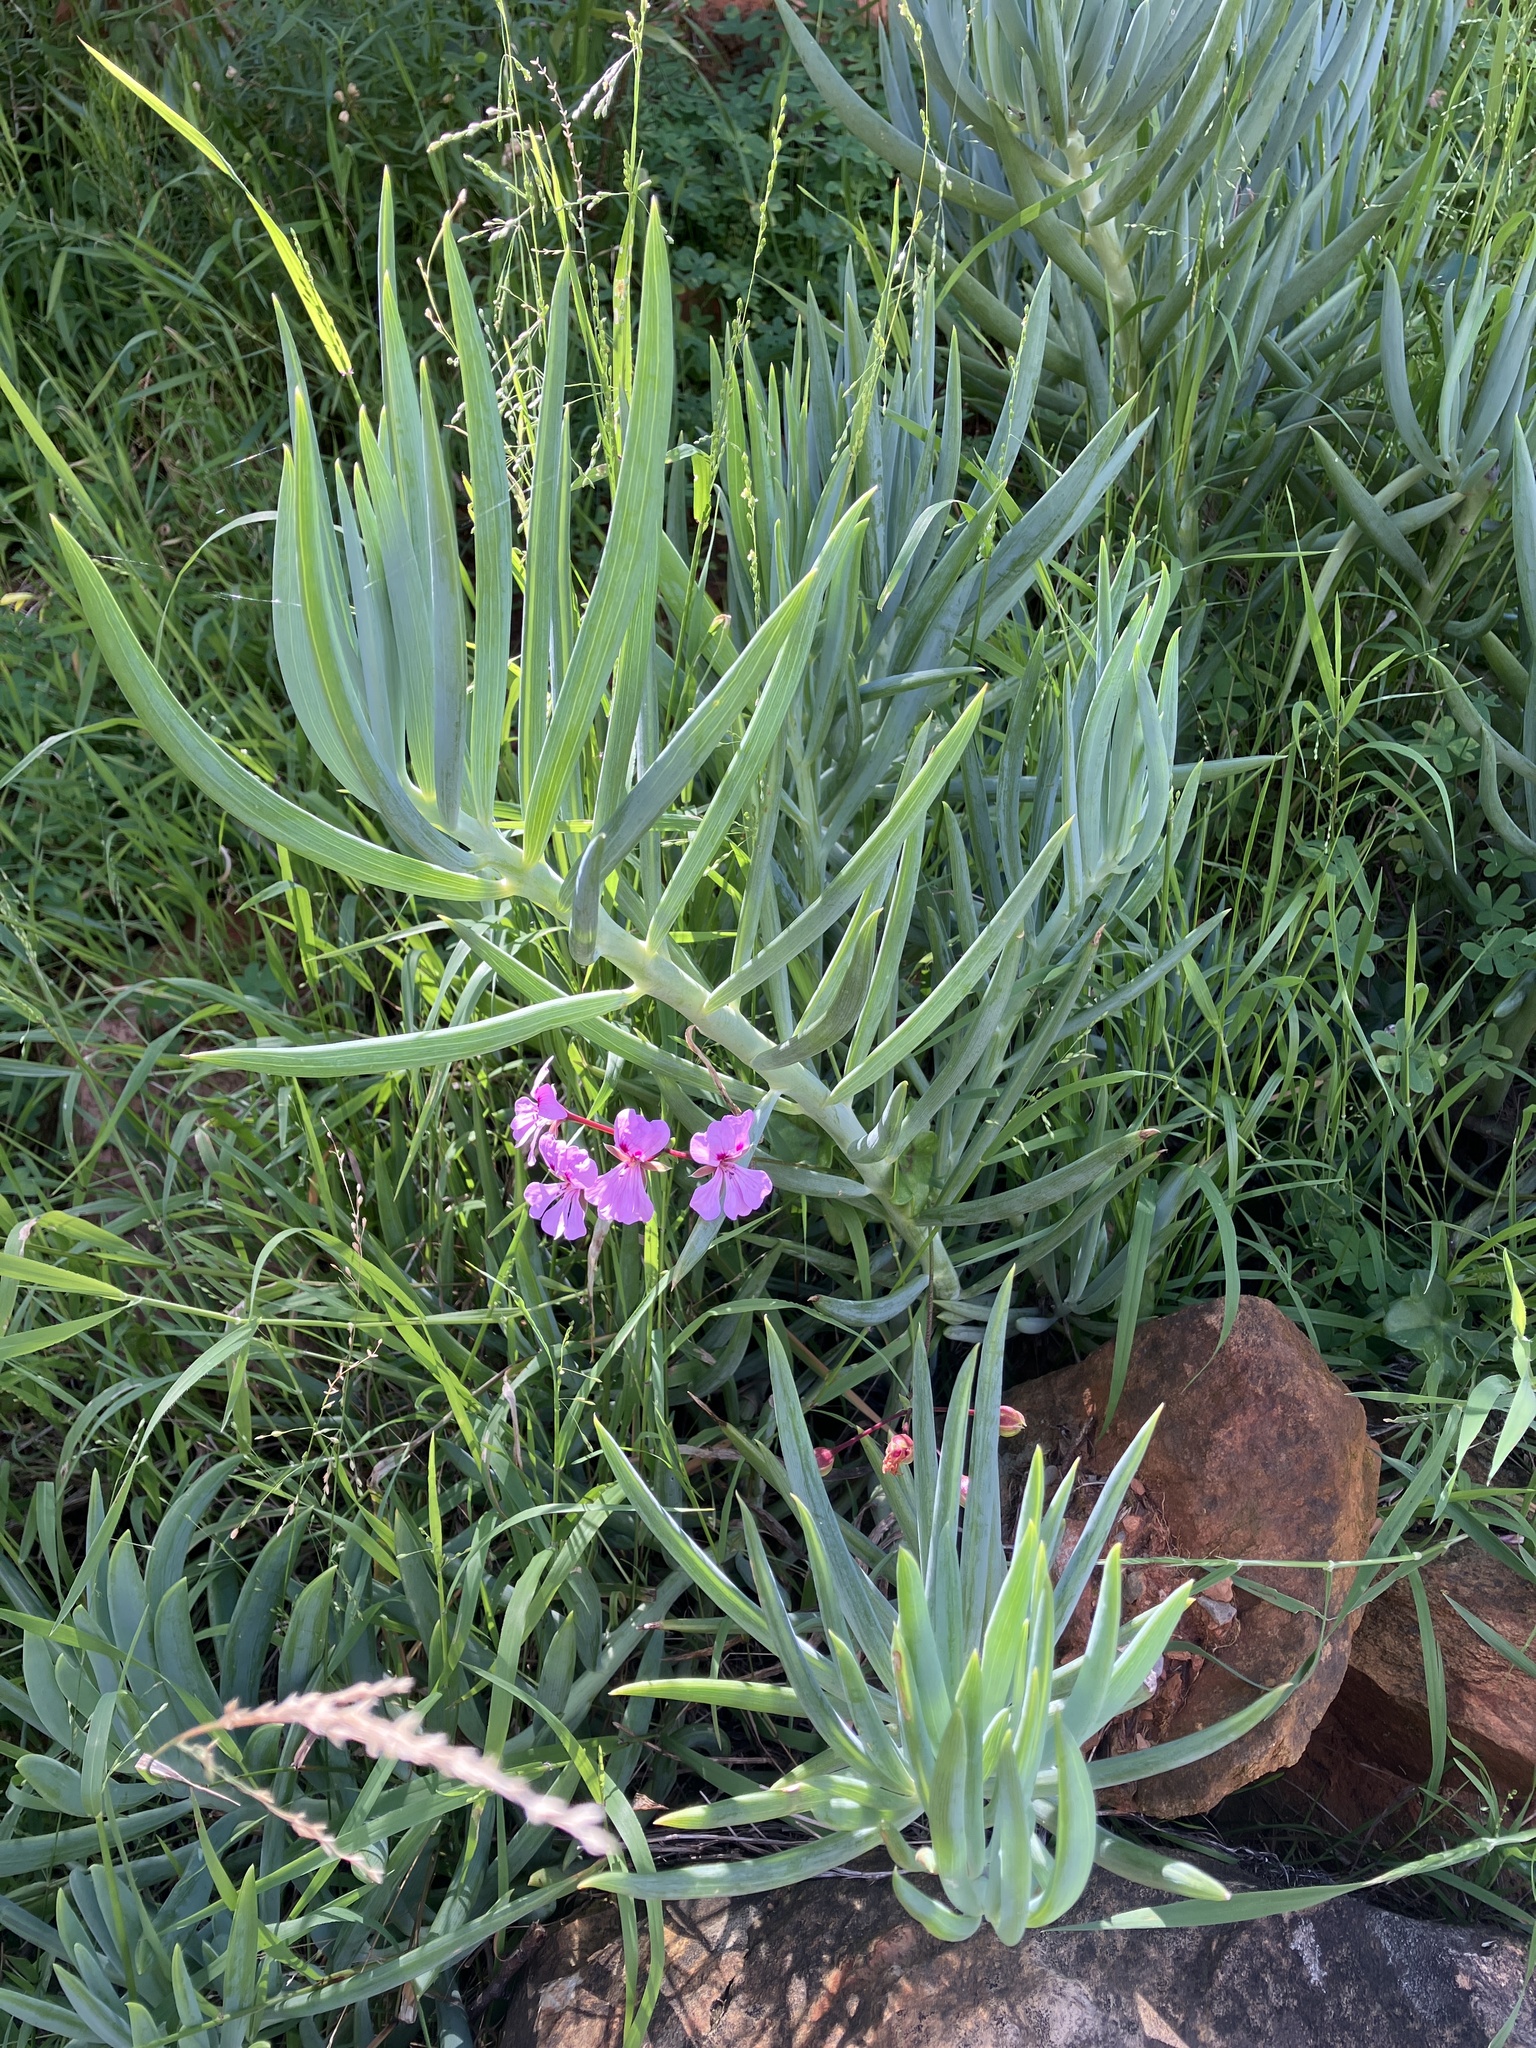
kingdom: Plantae
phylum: Tracheophyta
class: Magnoliopsida
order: Geraniales
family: Geraniaceae
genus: Pelargonium
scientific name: Pelargonium peltatum
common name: Ivyleaf geranium
